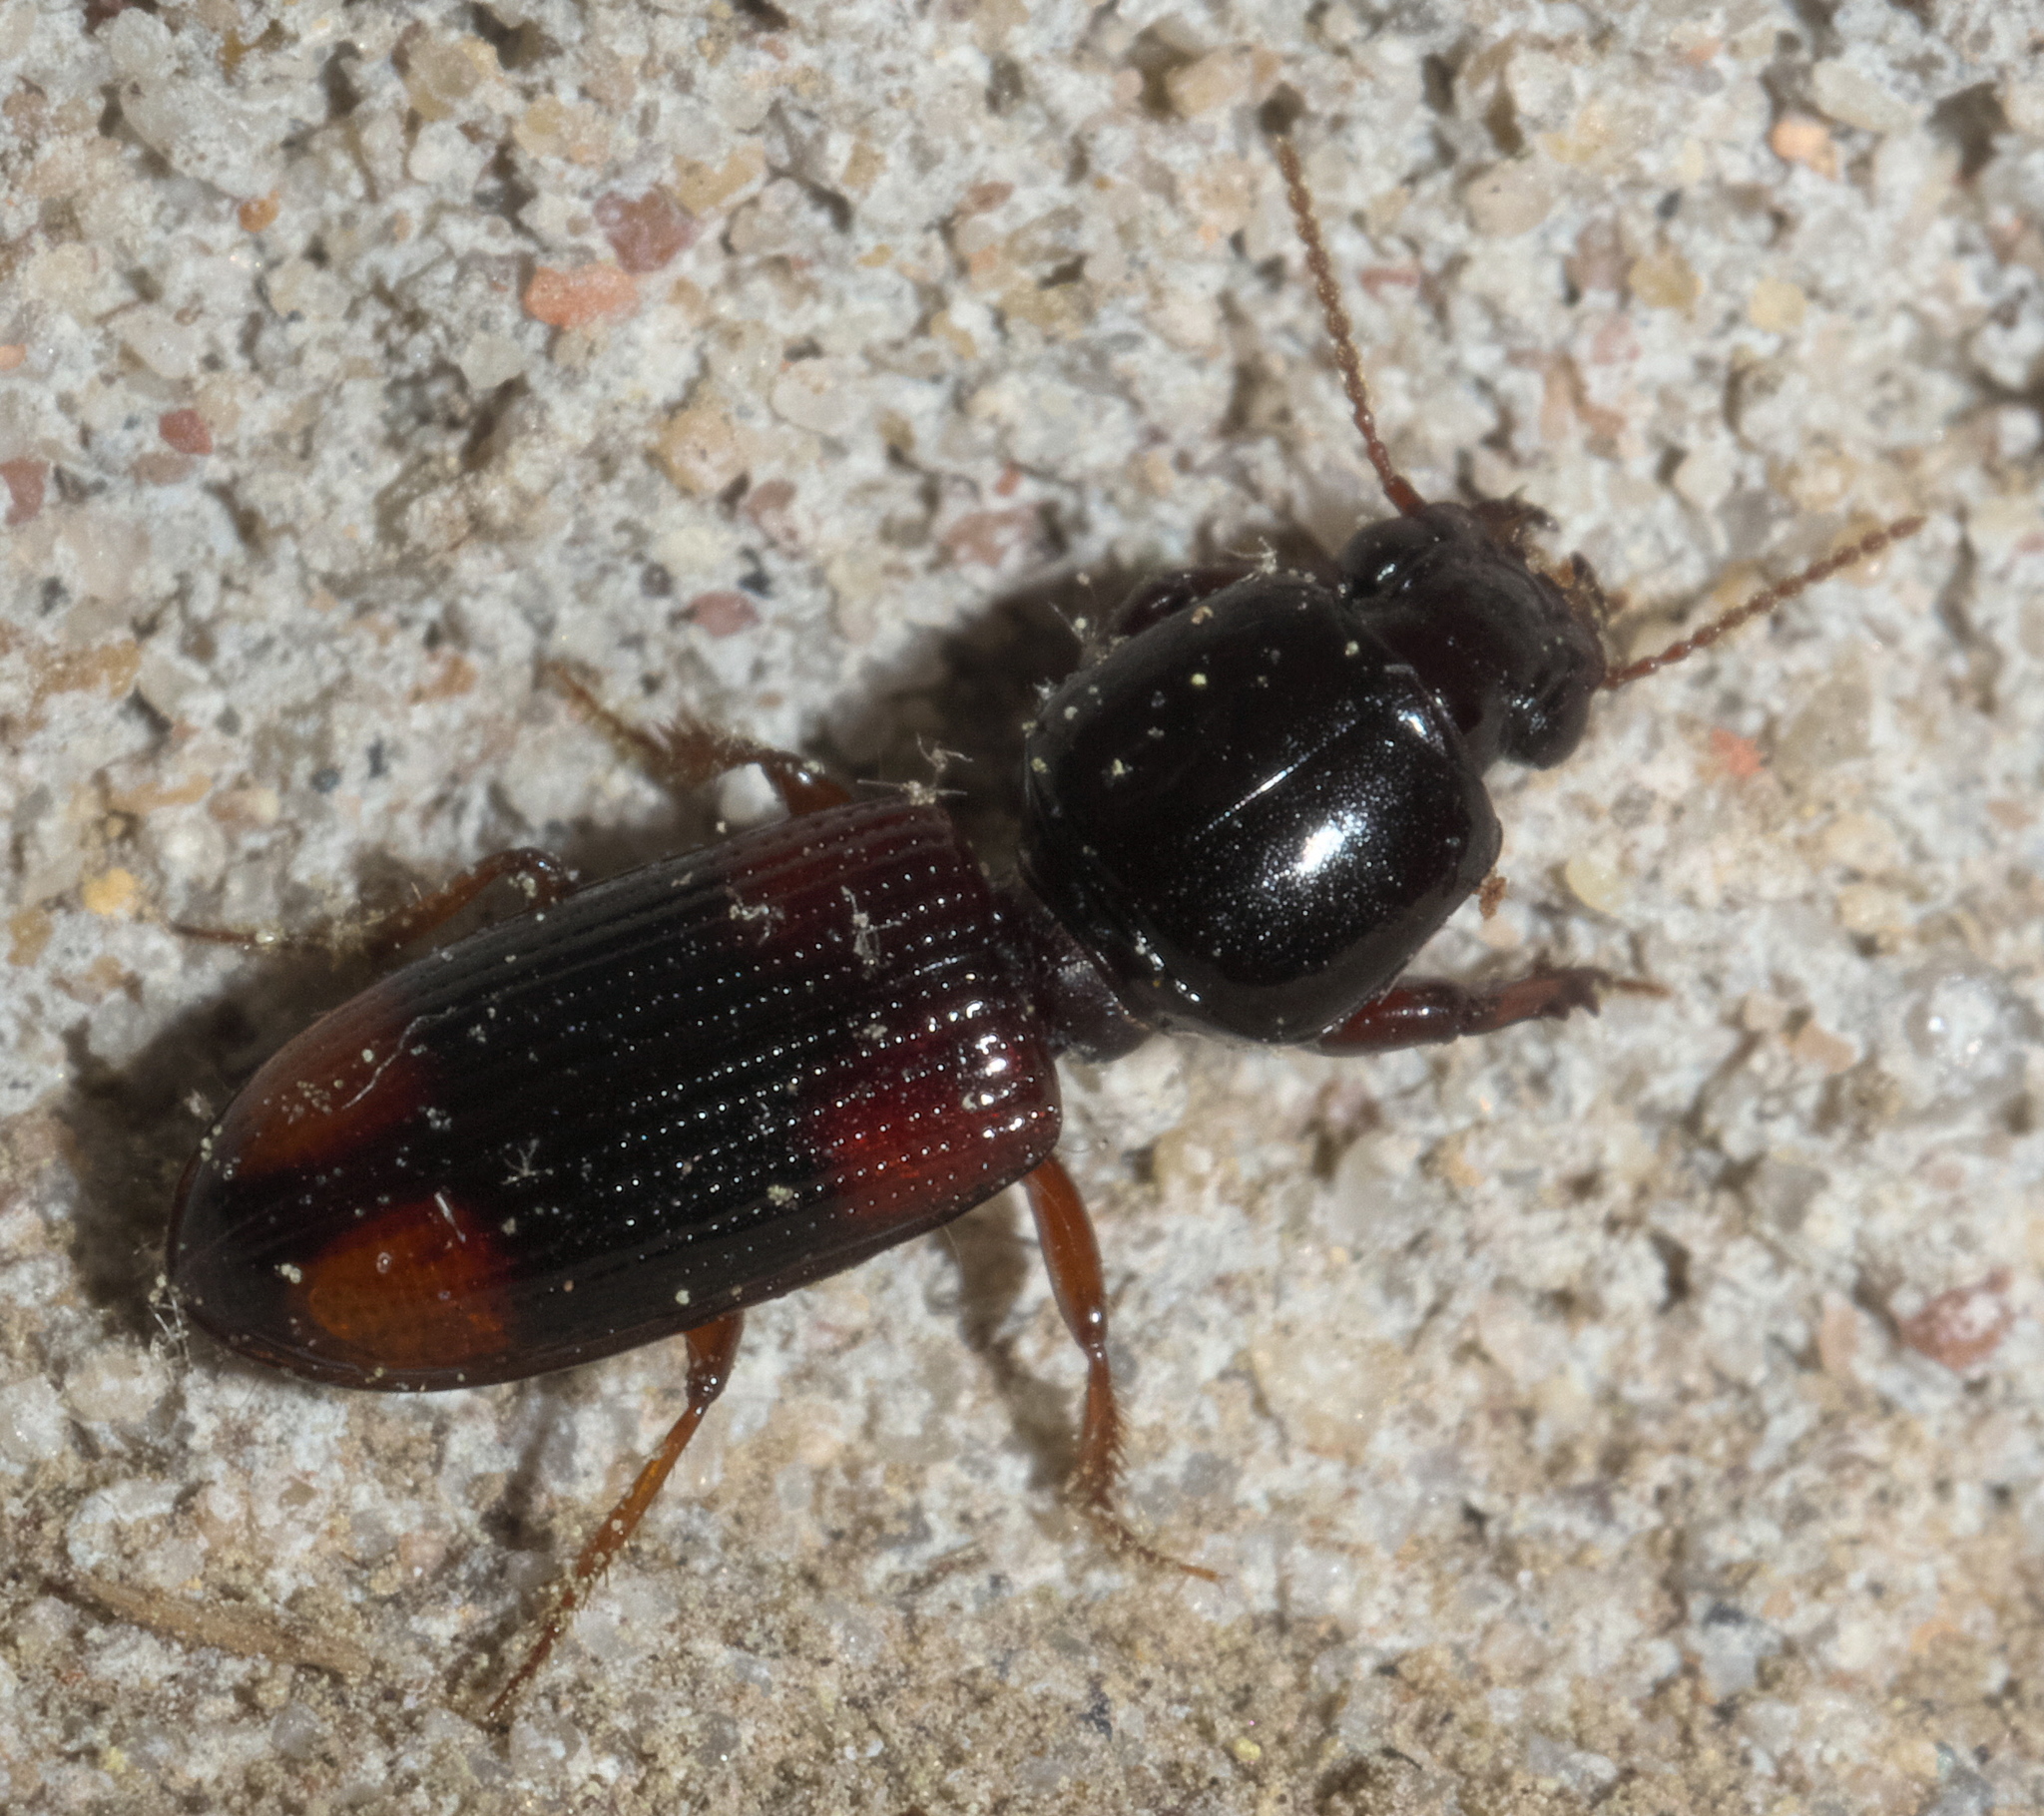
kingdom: Animalia
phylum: Arthropoda
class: Insecta
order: Coleoptera
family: Carabidae
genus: Clivina
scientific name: Clivina bipustulata
